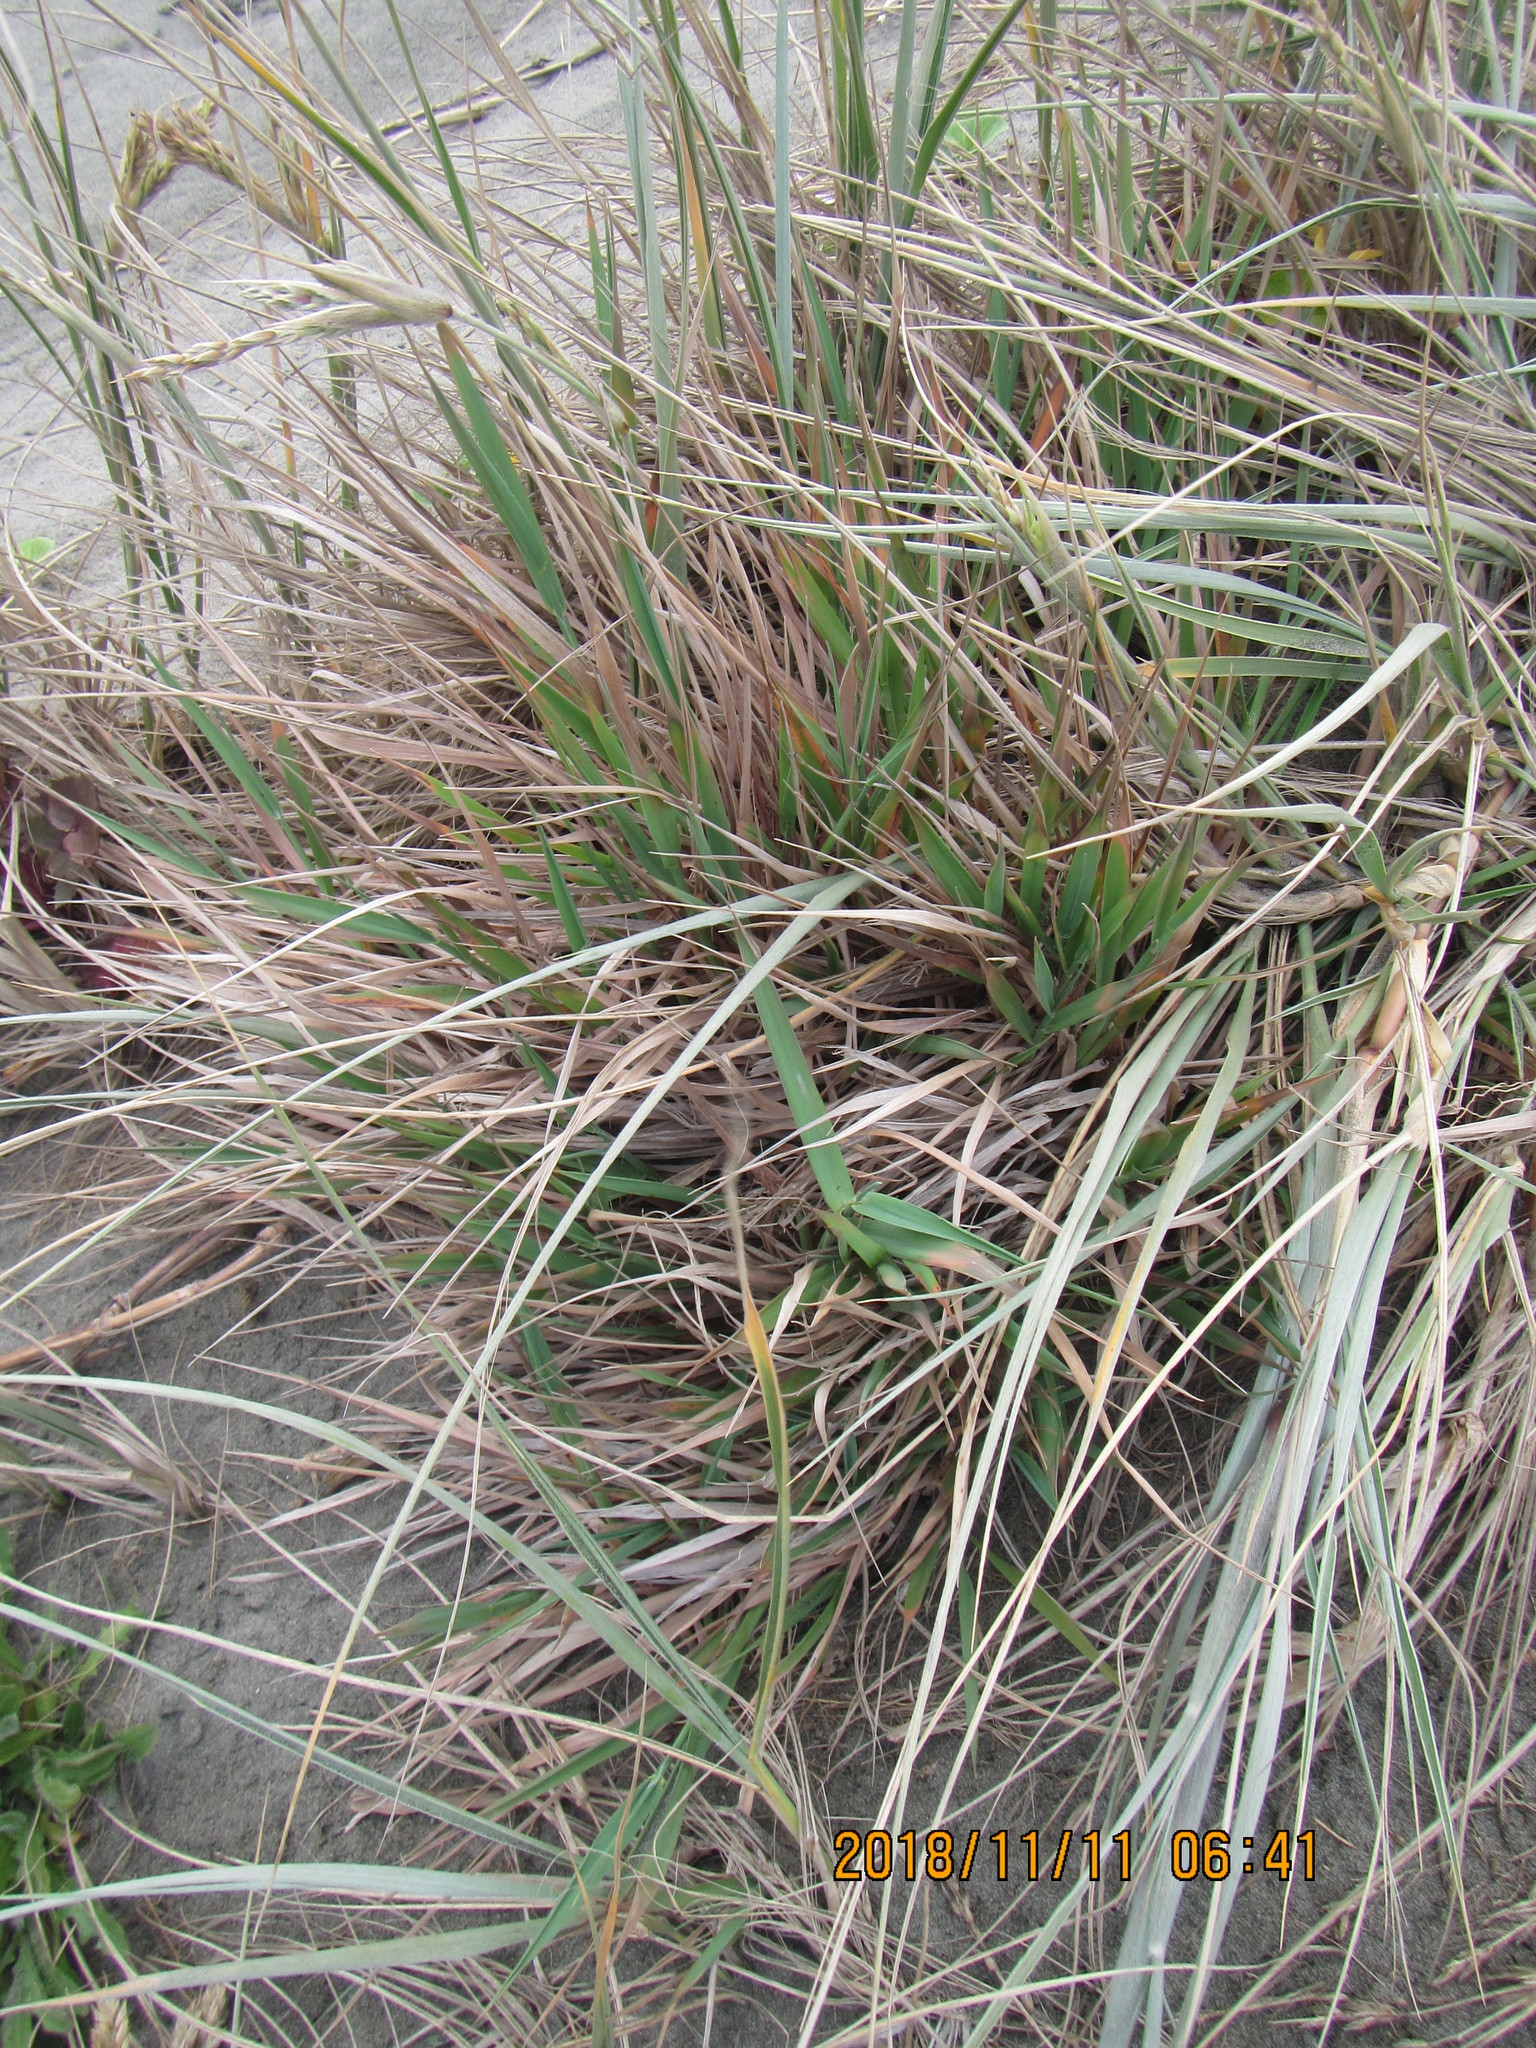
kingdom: Plantae
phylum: Tracheophyta
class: Liliopsida
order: Poales
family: Poaceae
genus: Lachnagrostis
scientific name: Lachnagrostis billardierei
